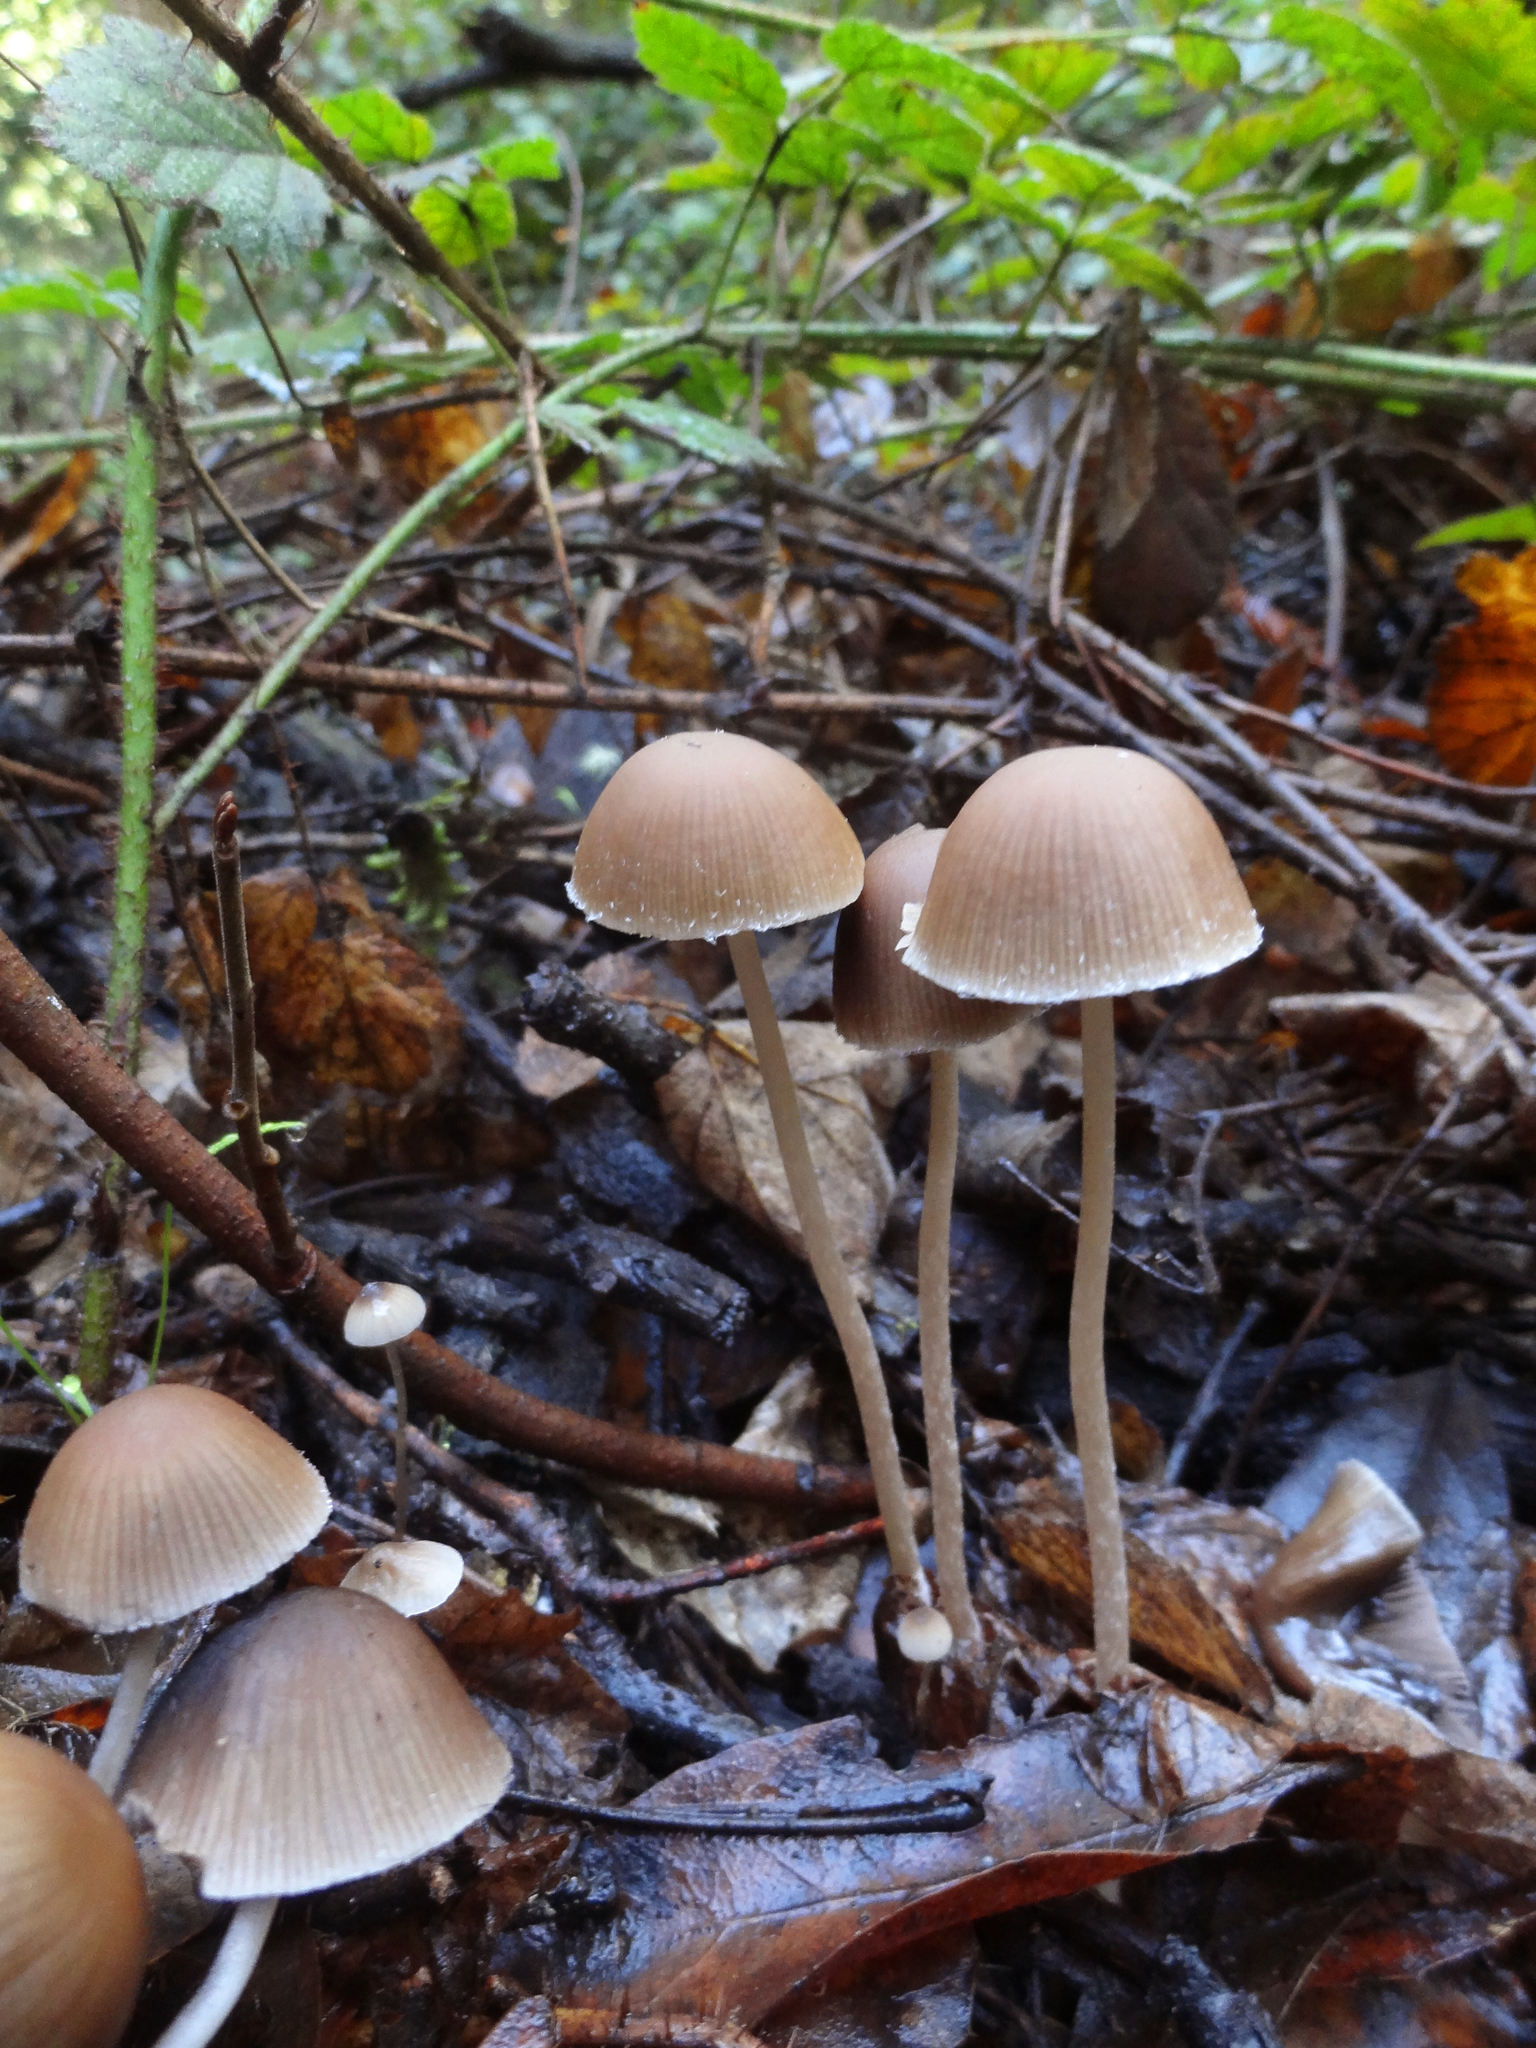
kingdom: Fungi
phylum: Basidiomycota
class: Agaricomycetes
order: Agaricales
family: Psathyrellaceae
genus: Psathyrella
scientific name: Psathyrella corrugis
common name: Red edge brittlestem
